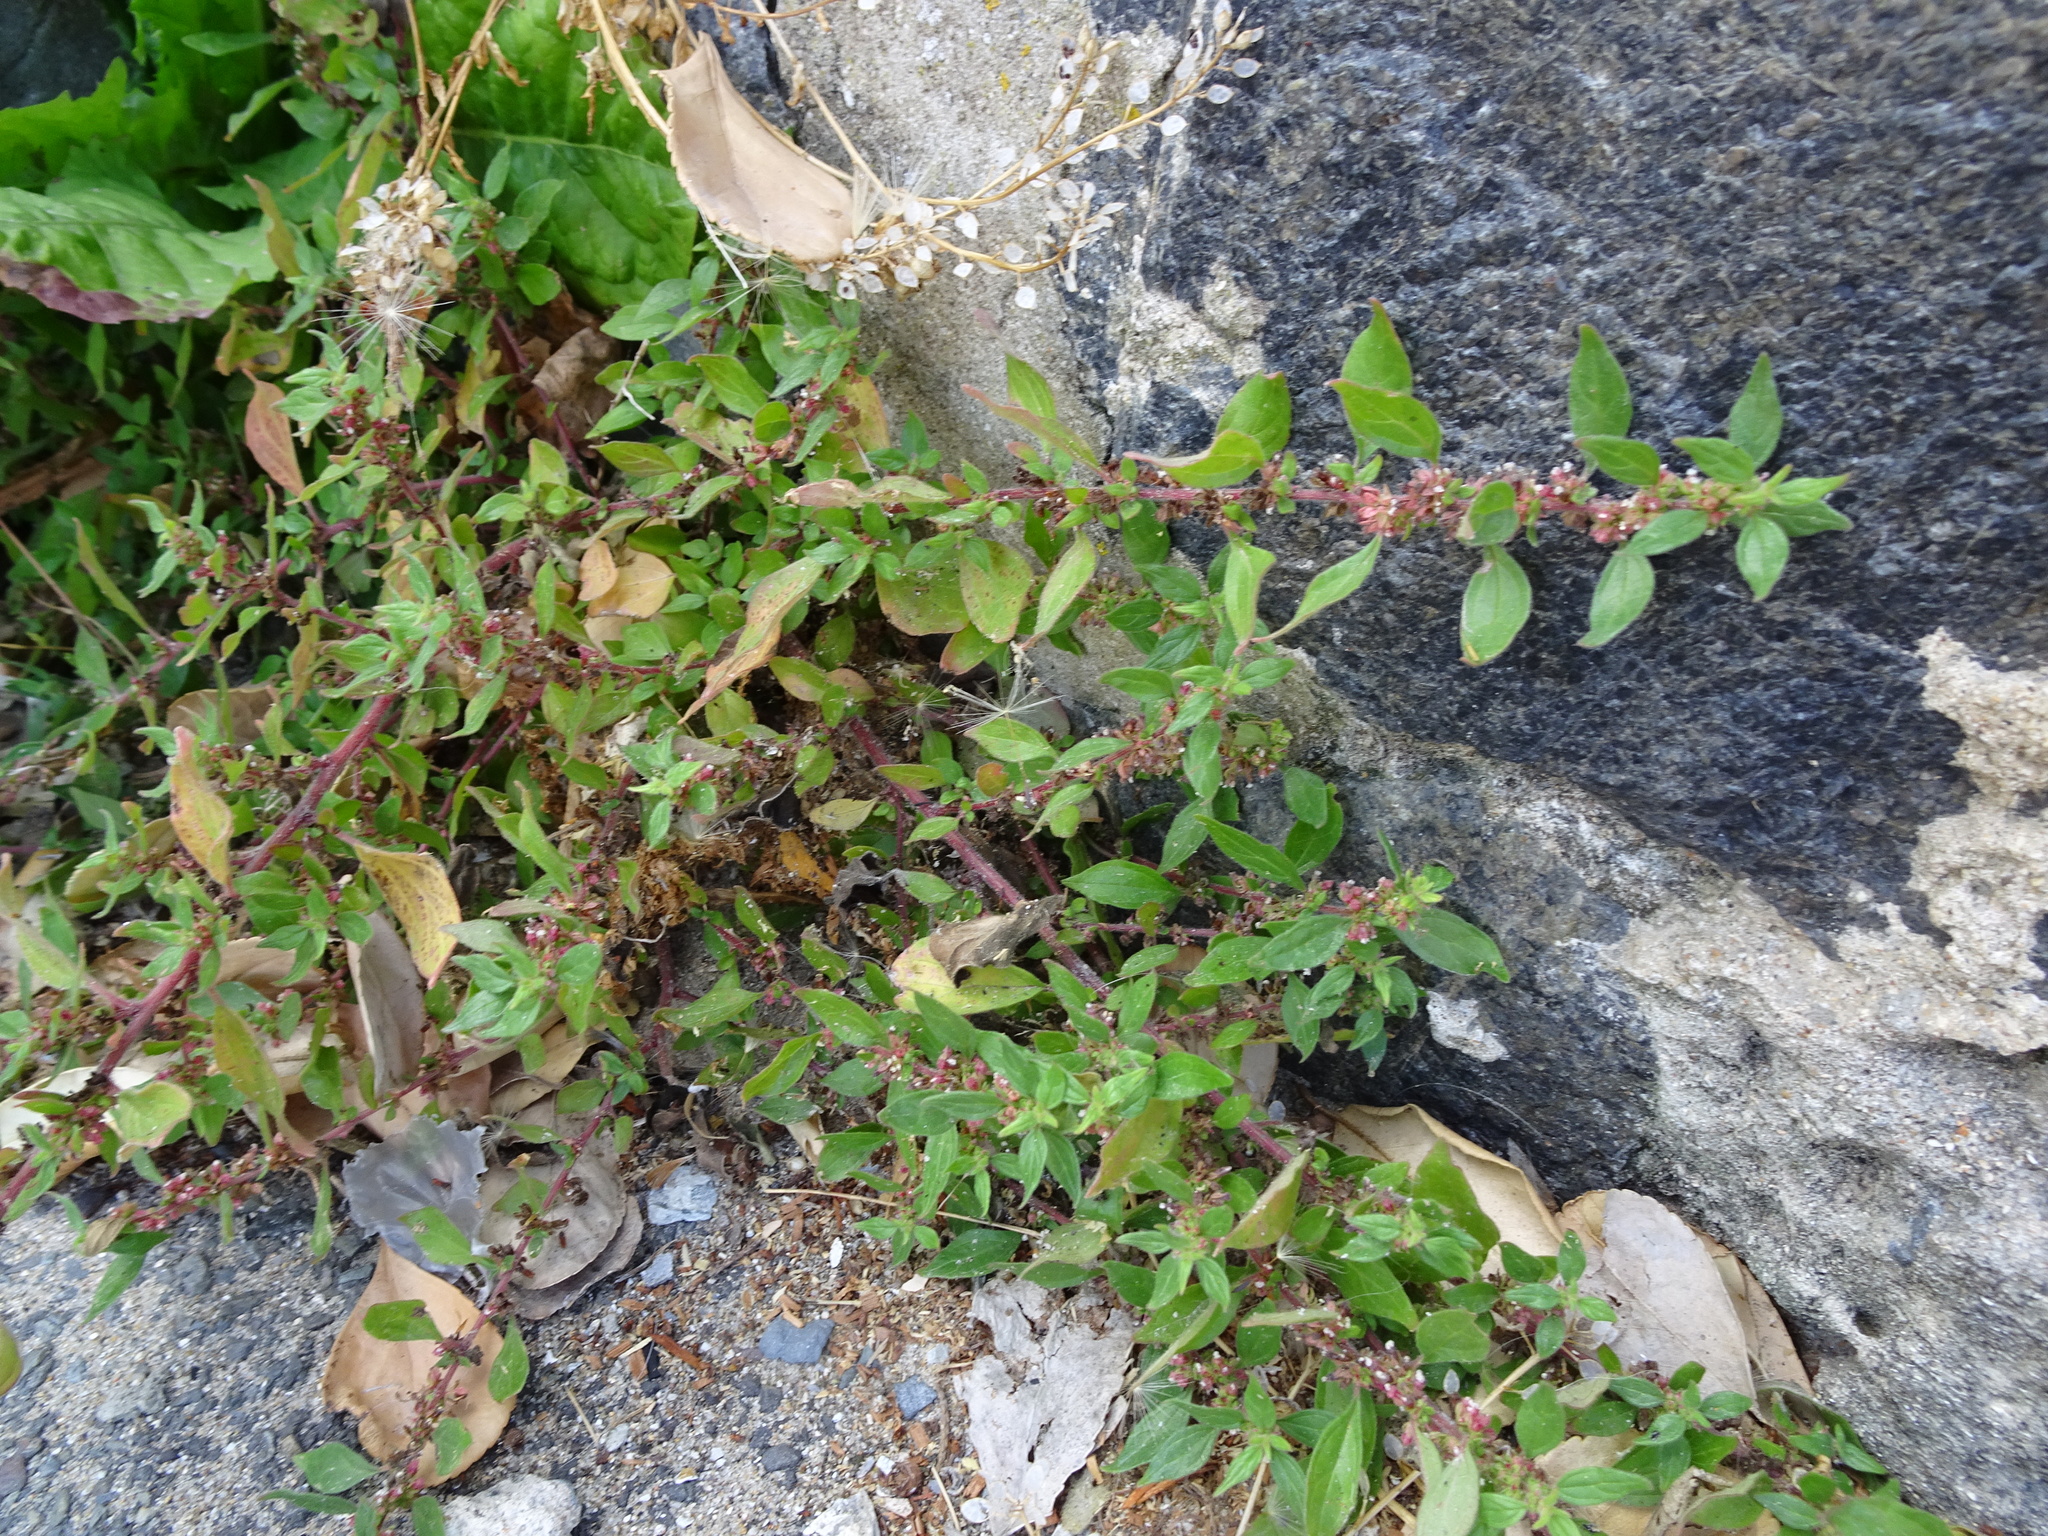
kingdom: Plantae
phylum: Tracheophyta
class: Magnoliopsida
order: Rosales
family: Urticaceae
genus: Parietaria
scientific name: Parietaria judaica
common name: Pellitory-of-the-wall
